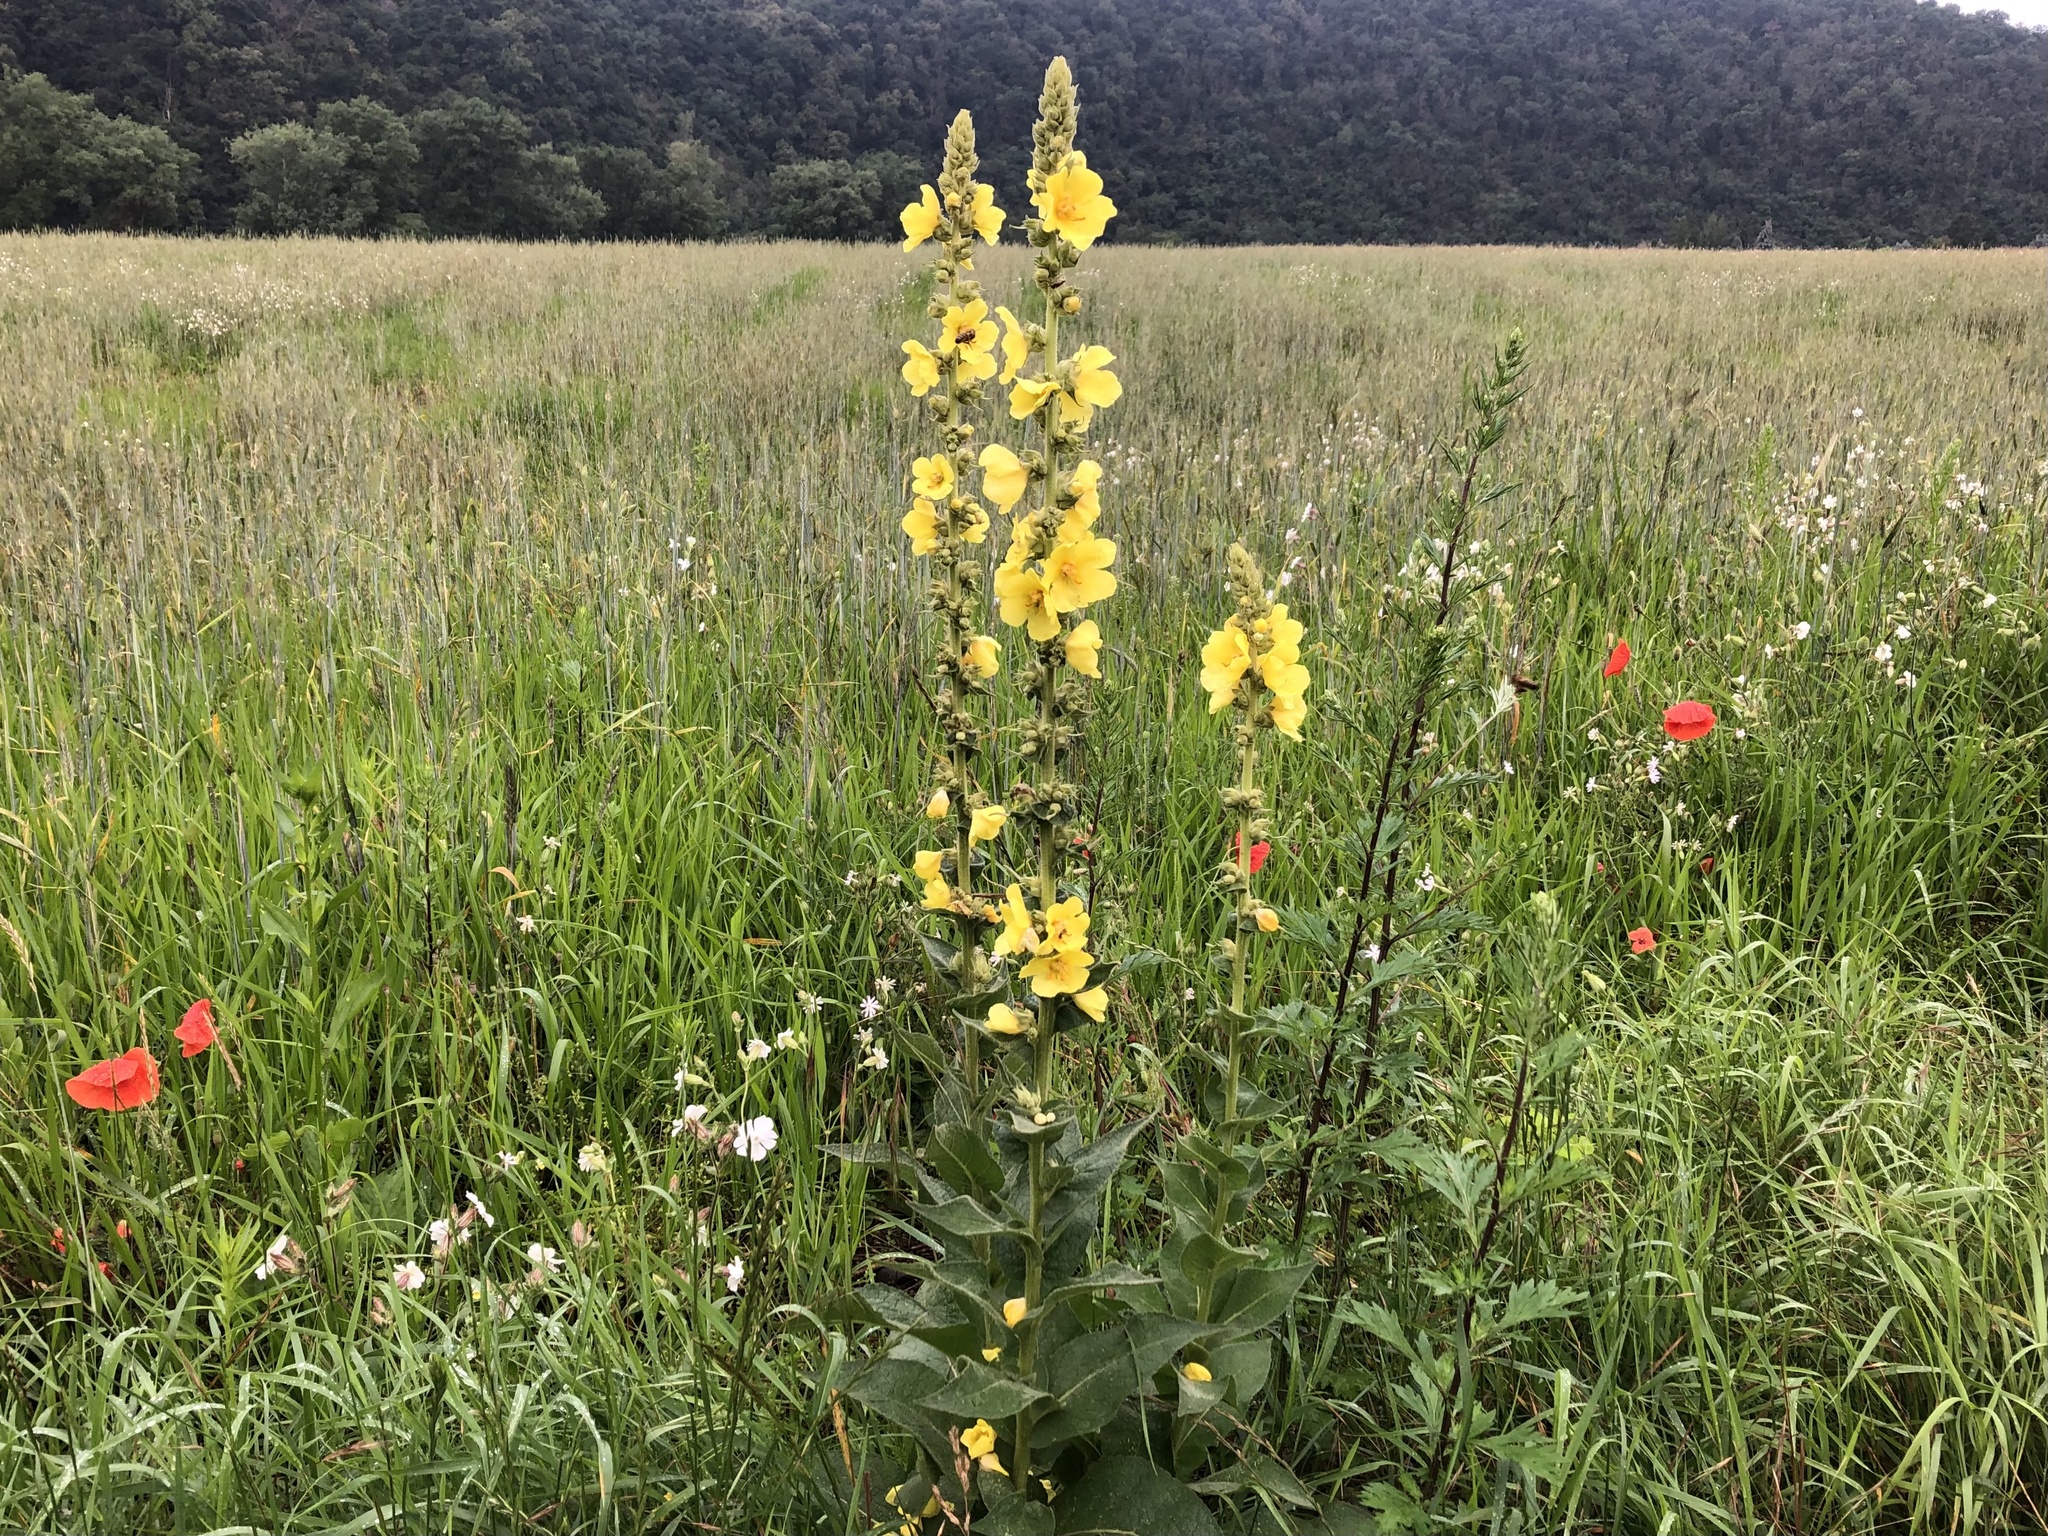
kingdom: Plantae
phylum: Tracheophyta
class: Magnoliopsida
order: Lamiales
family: Scrophulariaceae
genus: Verbascum
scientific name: Verbascum phlomoides
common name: Orange mullein
